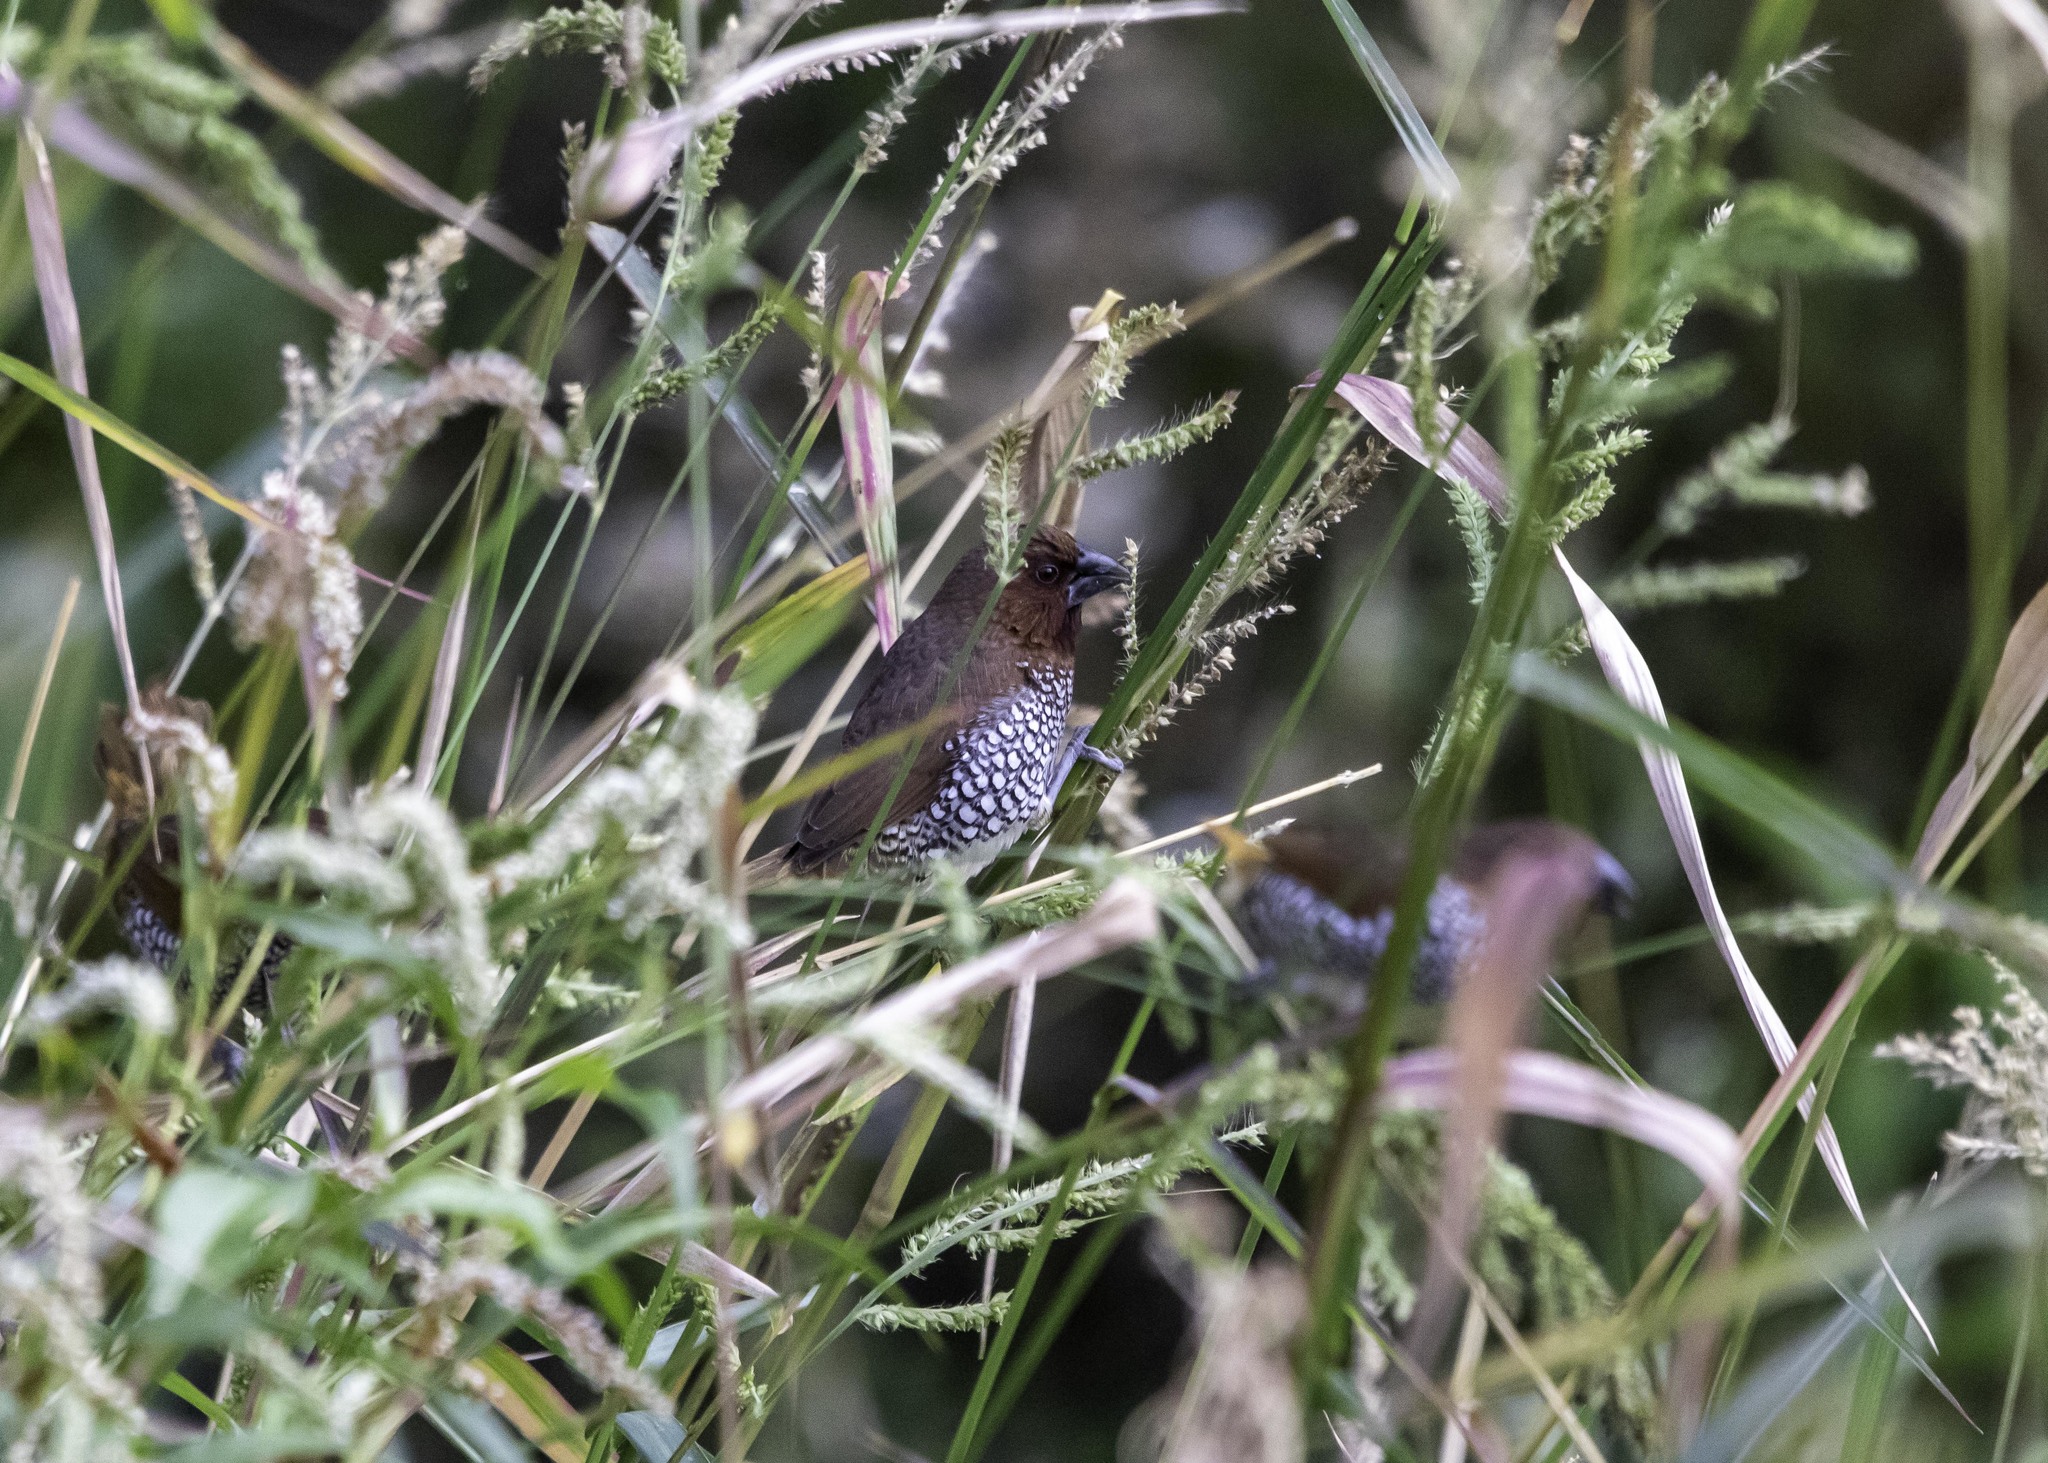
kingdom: Animalia
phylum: Chordata
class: Aves
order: Passeriformes
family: Estrildidae
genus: Lonchura
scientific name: Lonchura punctulata
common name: Scaly-breasted munia
